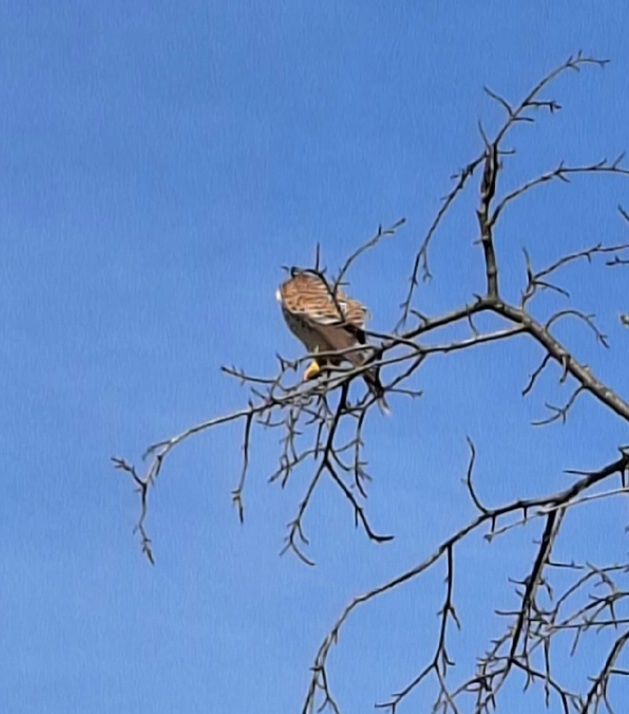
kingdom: Animalia
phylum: Chordata
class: Aves
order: Falconiformes
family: Falconidae
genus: Falco
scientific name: Falco tinnunculus
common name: Common kestrel
